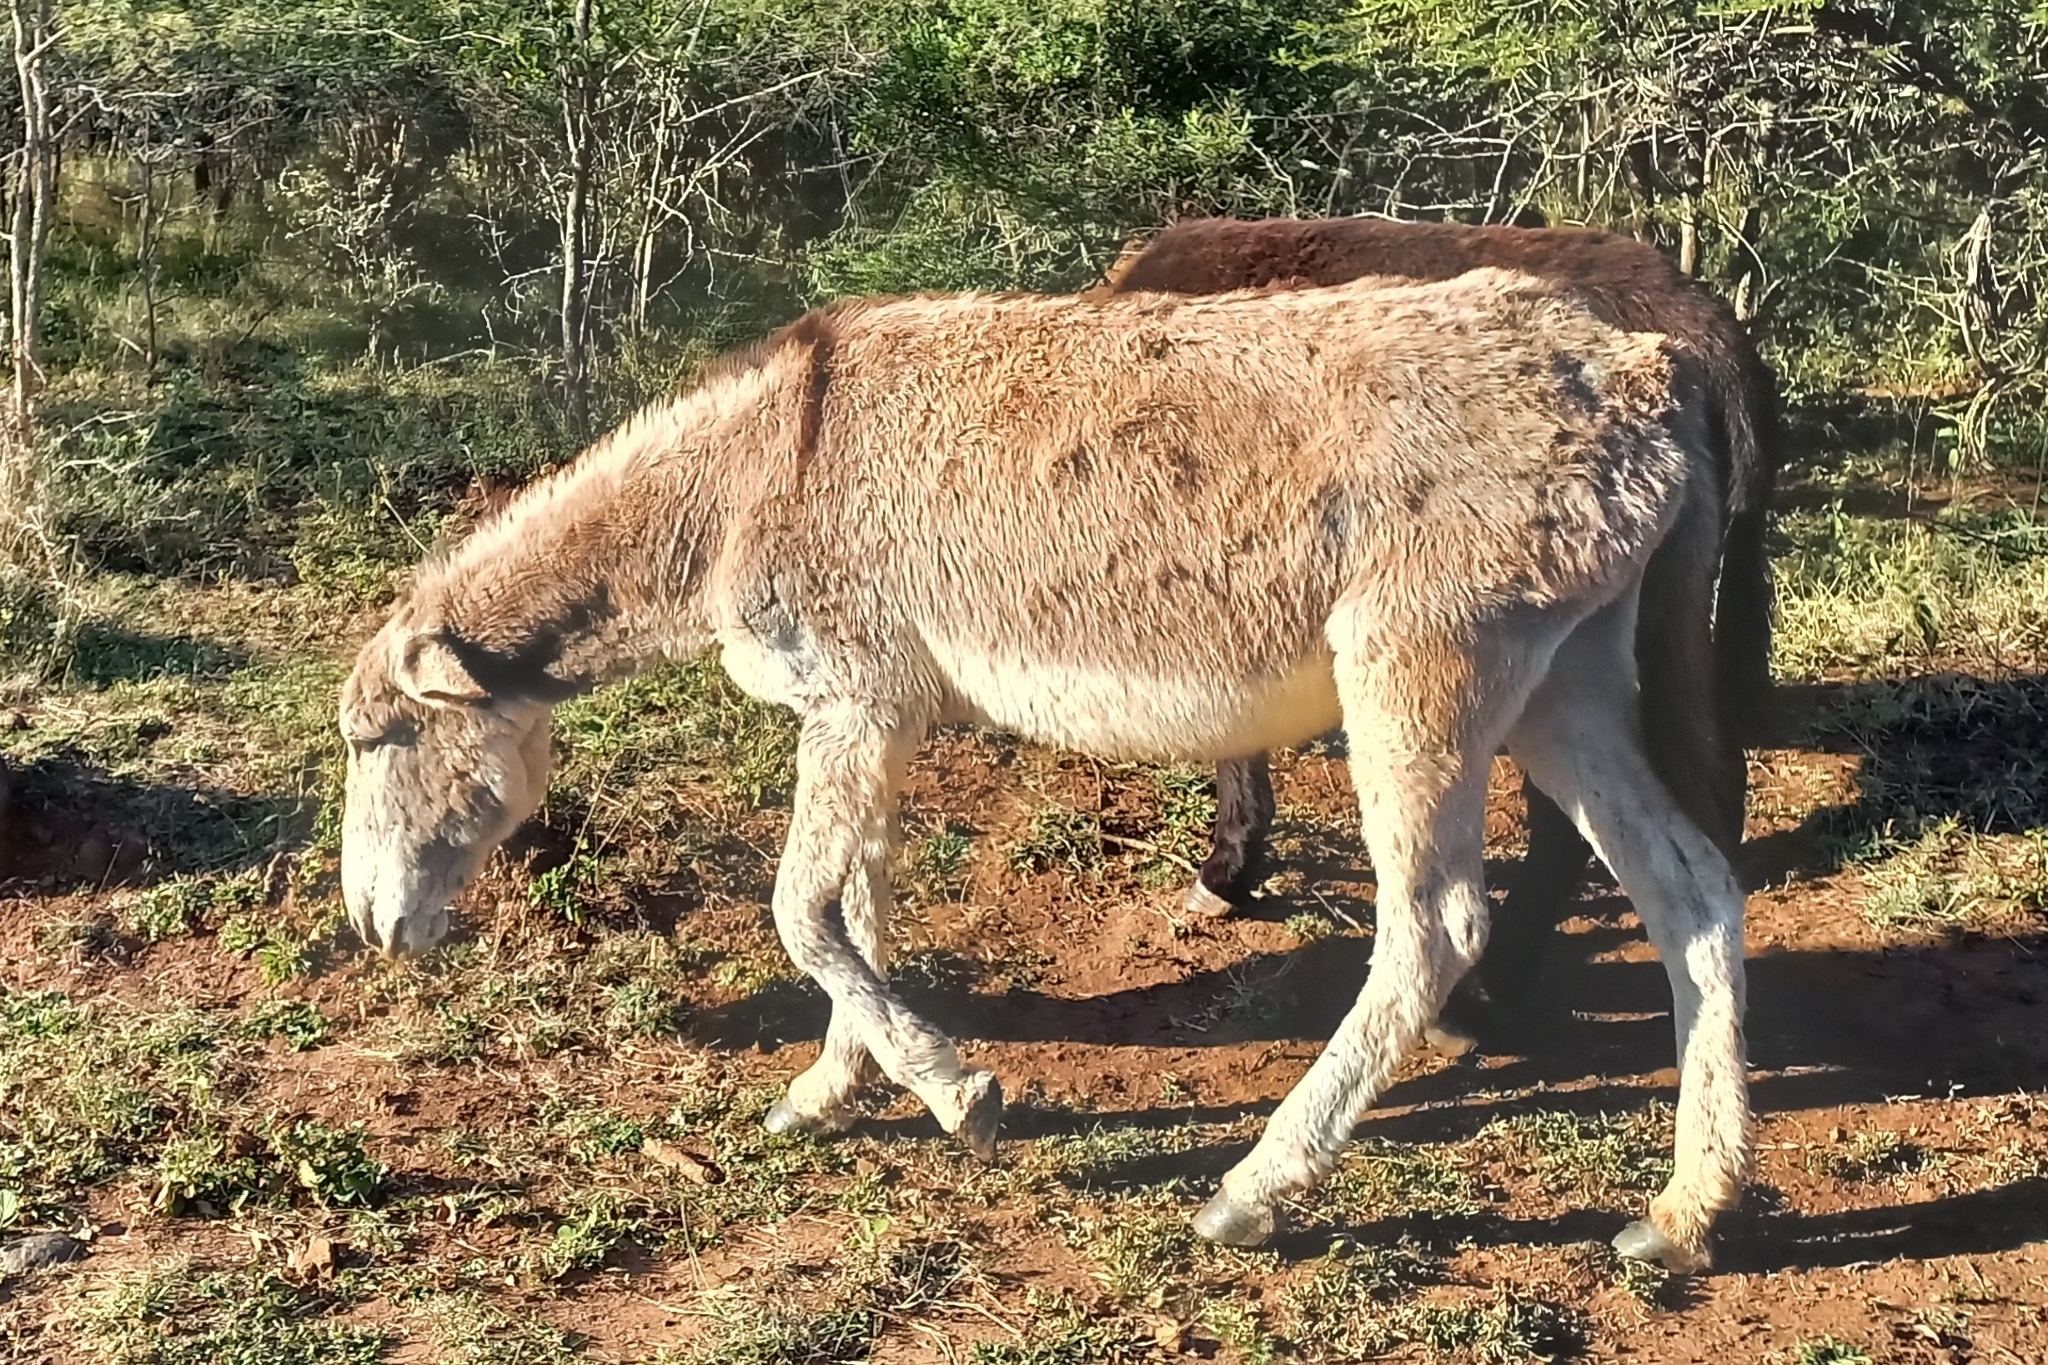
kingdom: Animalia
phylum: Chordata
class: Mammalia
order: Perissodactyla
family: Equidae
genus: Equus
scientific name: Equus asinus
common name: Ass
